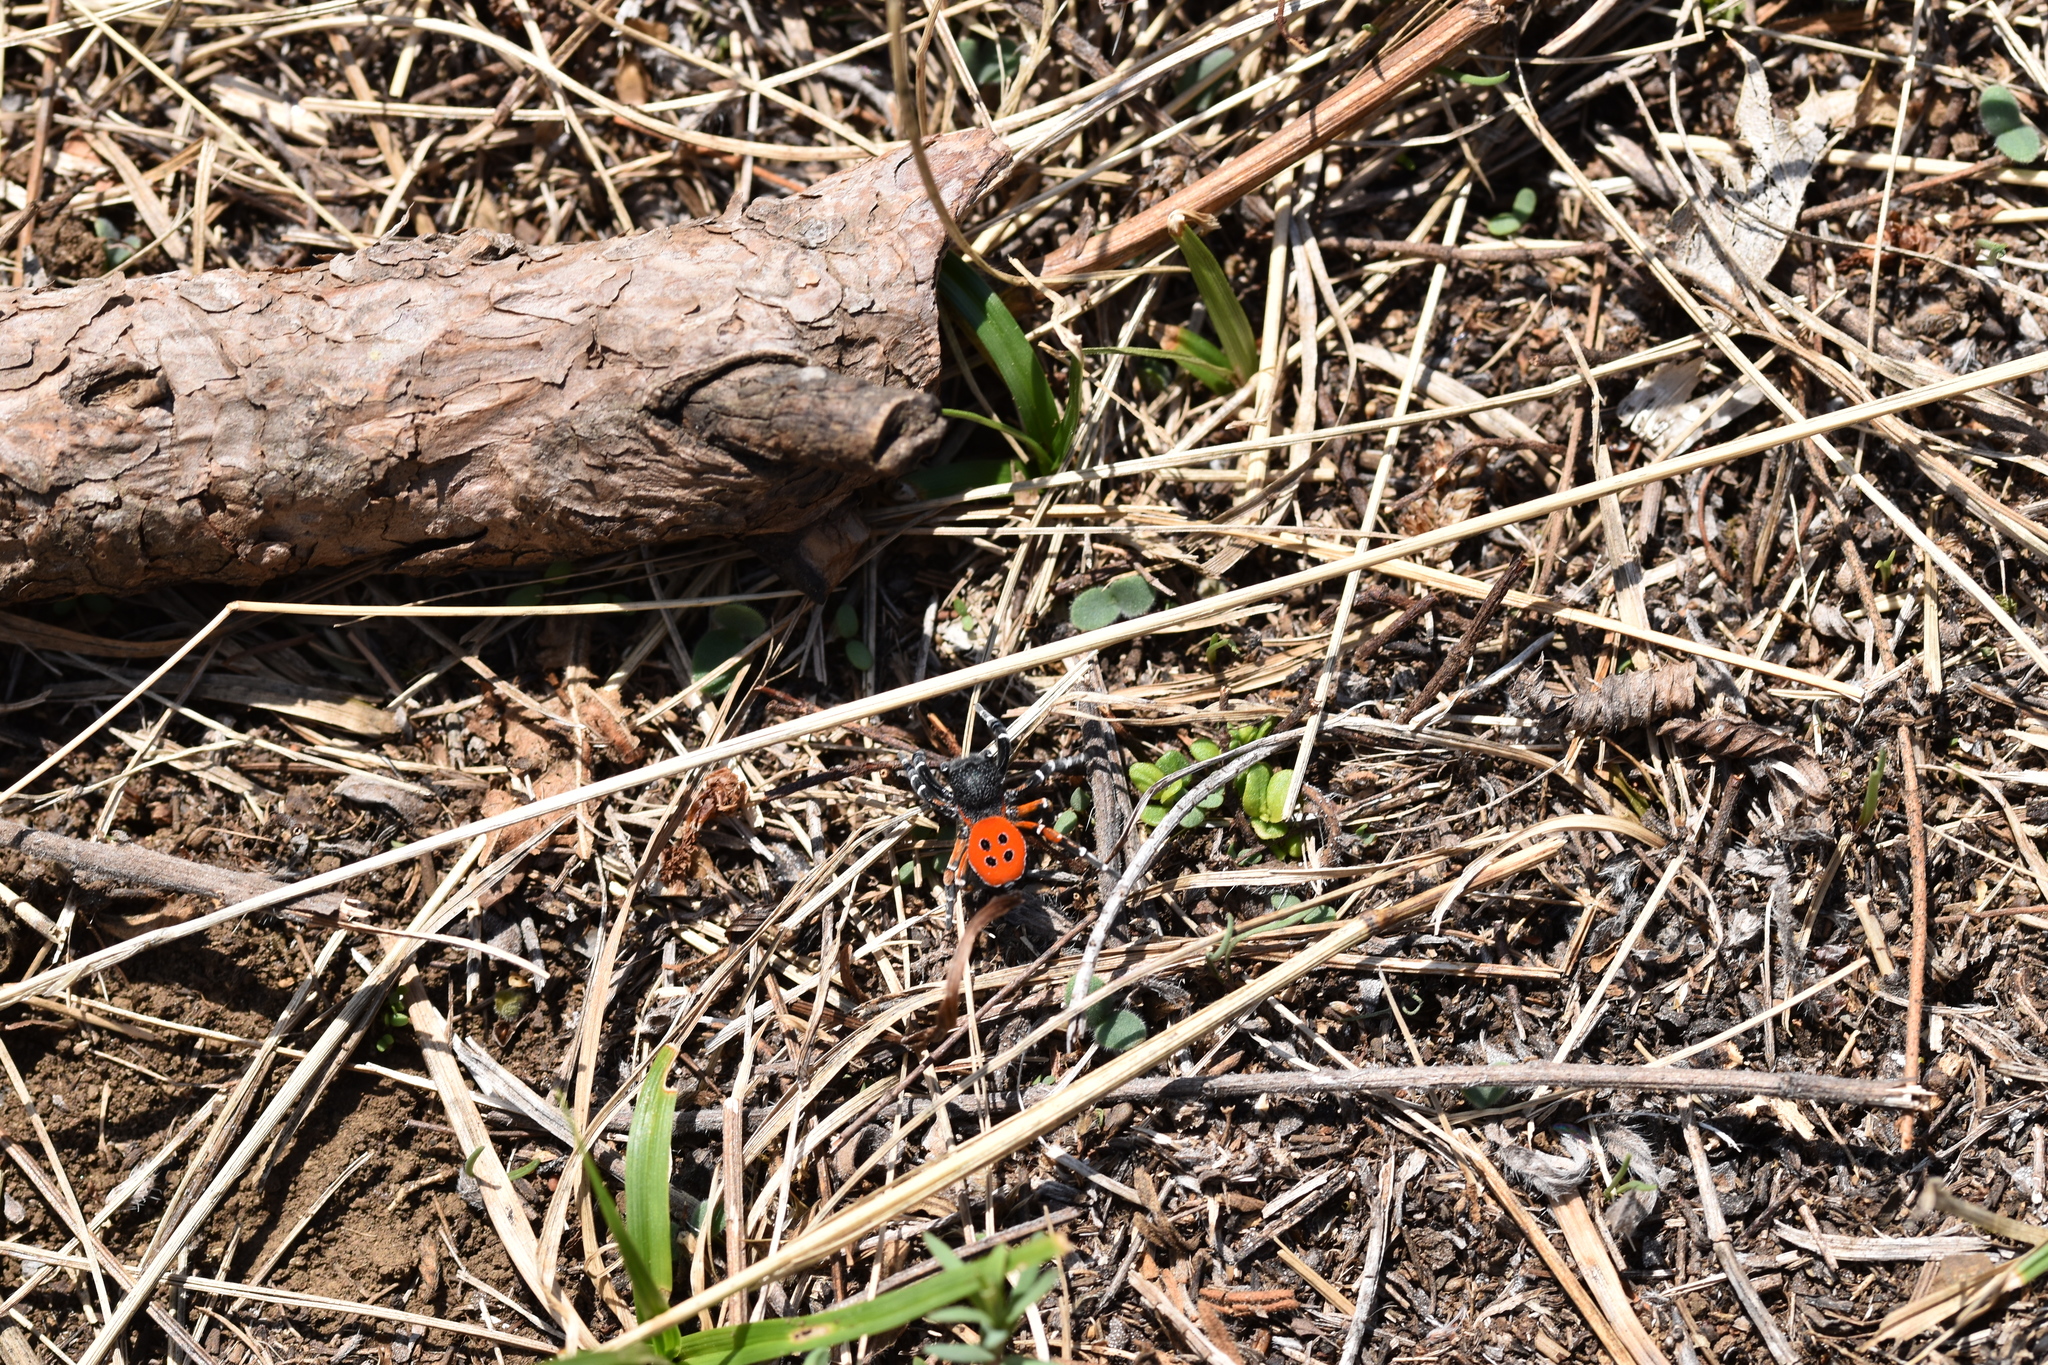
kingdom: Animalia
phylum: Arthropoda
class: Arachnida
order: Araneae
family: Eresidae
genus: Eresus
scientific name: Eresus kollari
